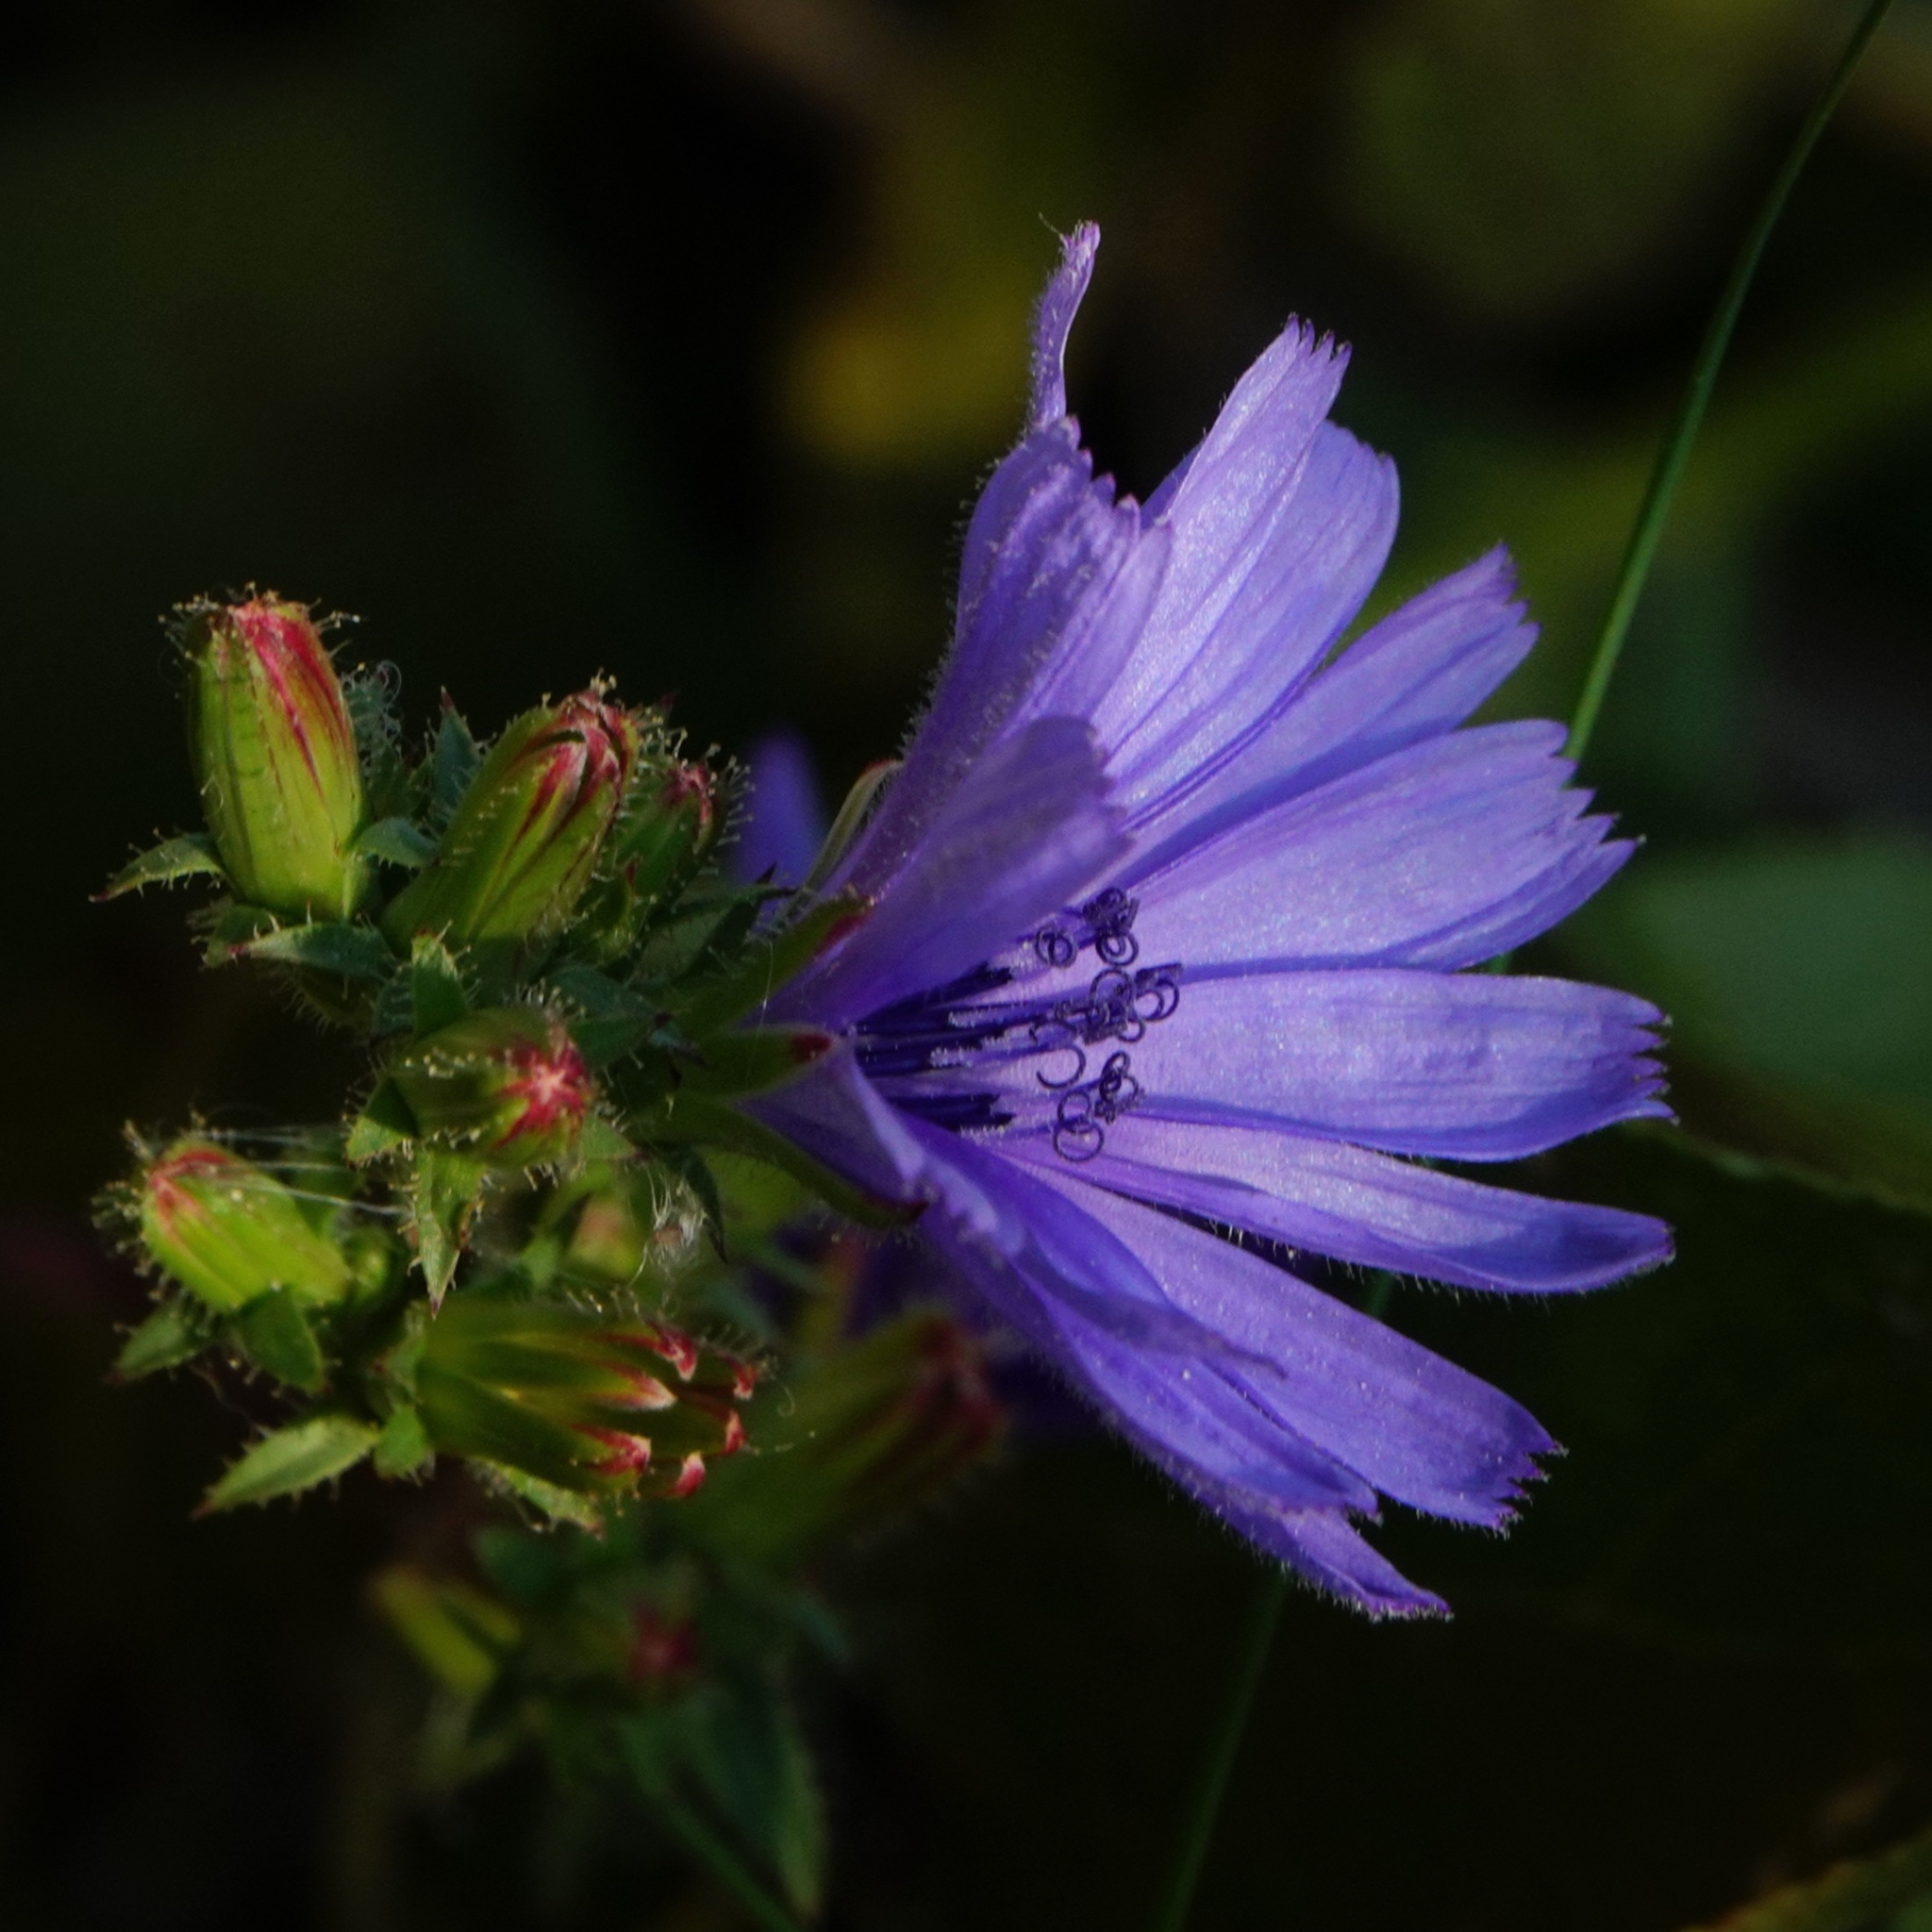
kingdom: Plantae
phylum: Tracheophyta
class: Magnoliopsida
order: Asterales
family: Asteraceae
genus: Cichorium
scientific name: Cichorium intybus
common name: Chicory
